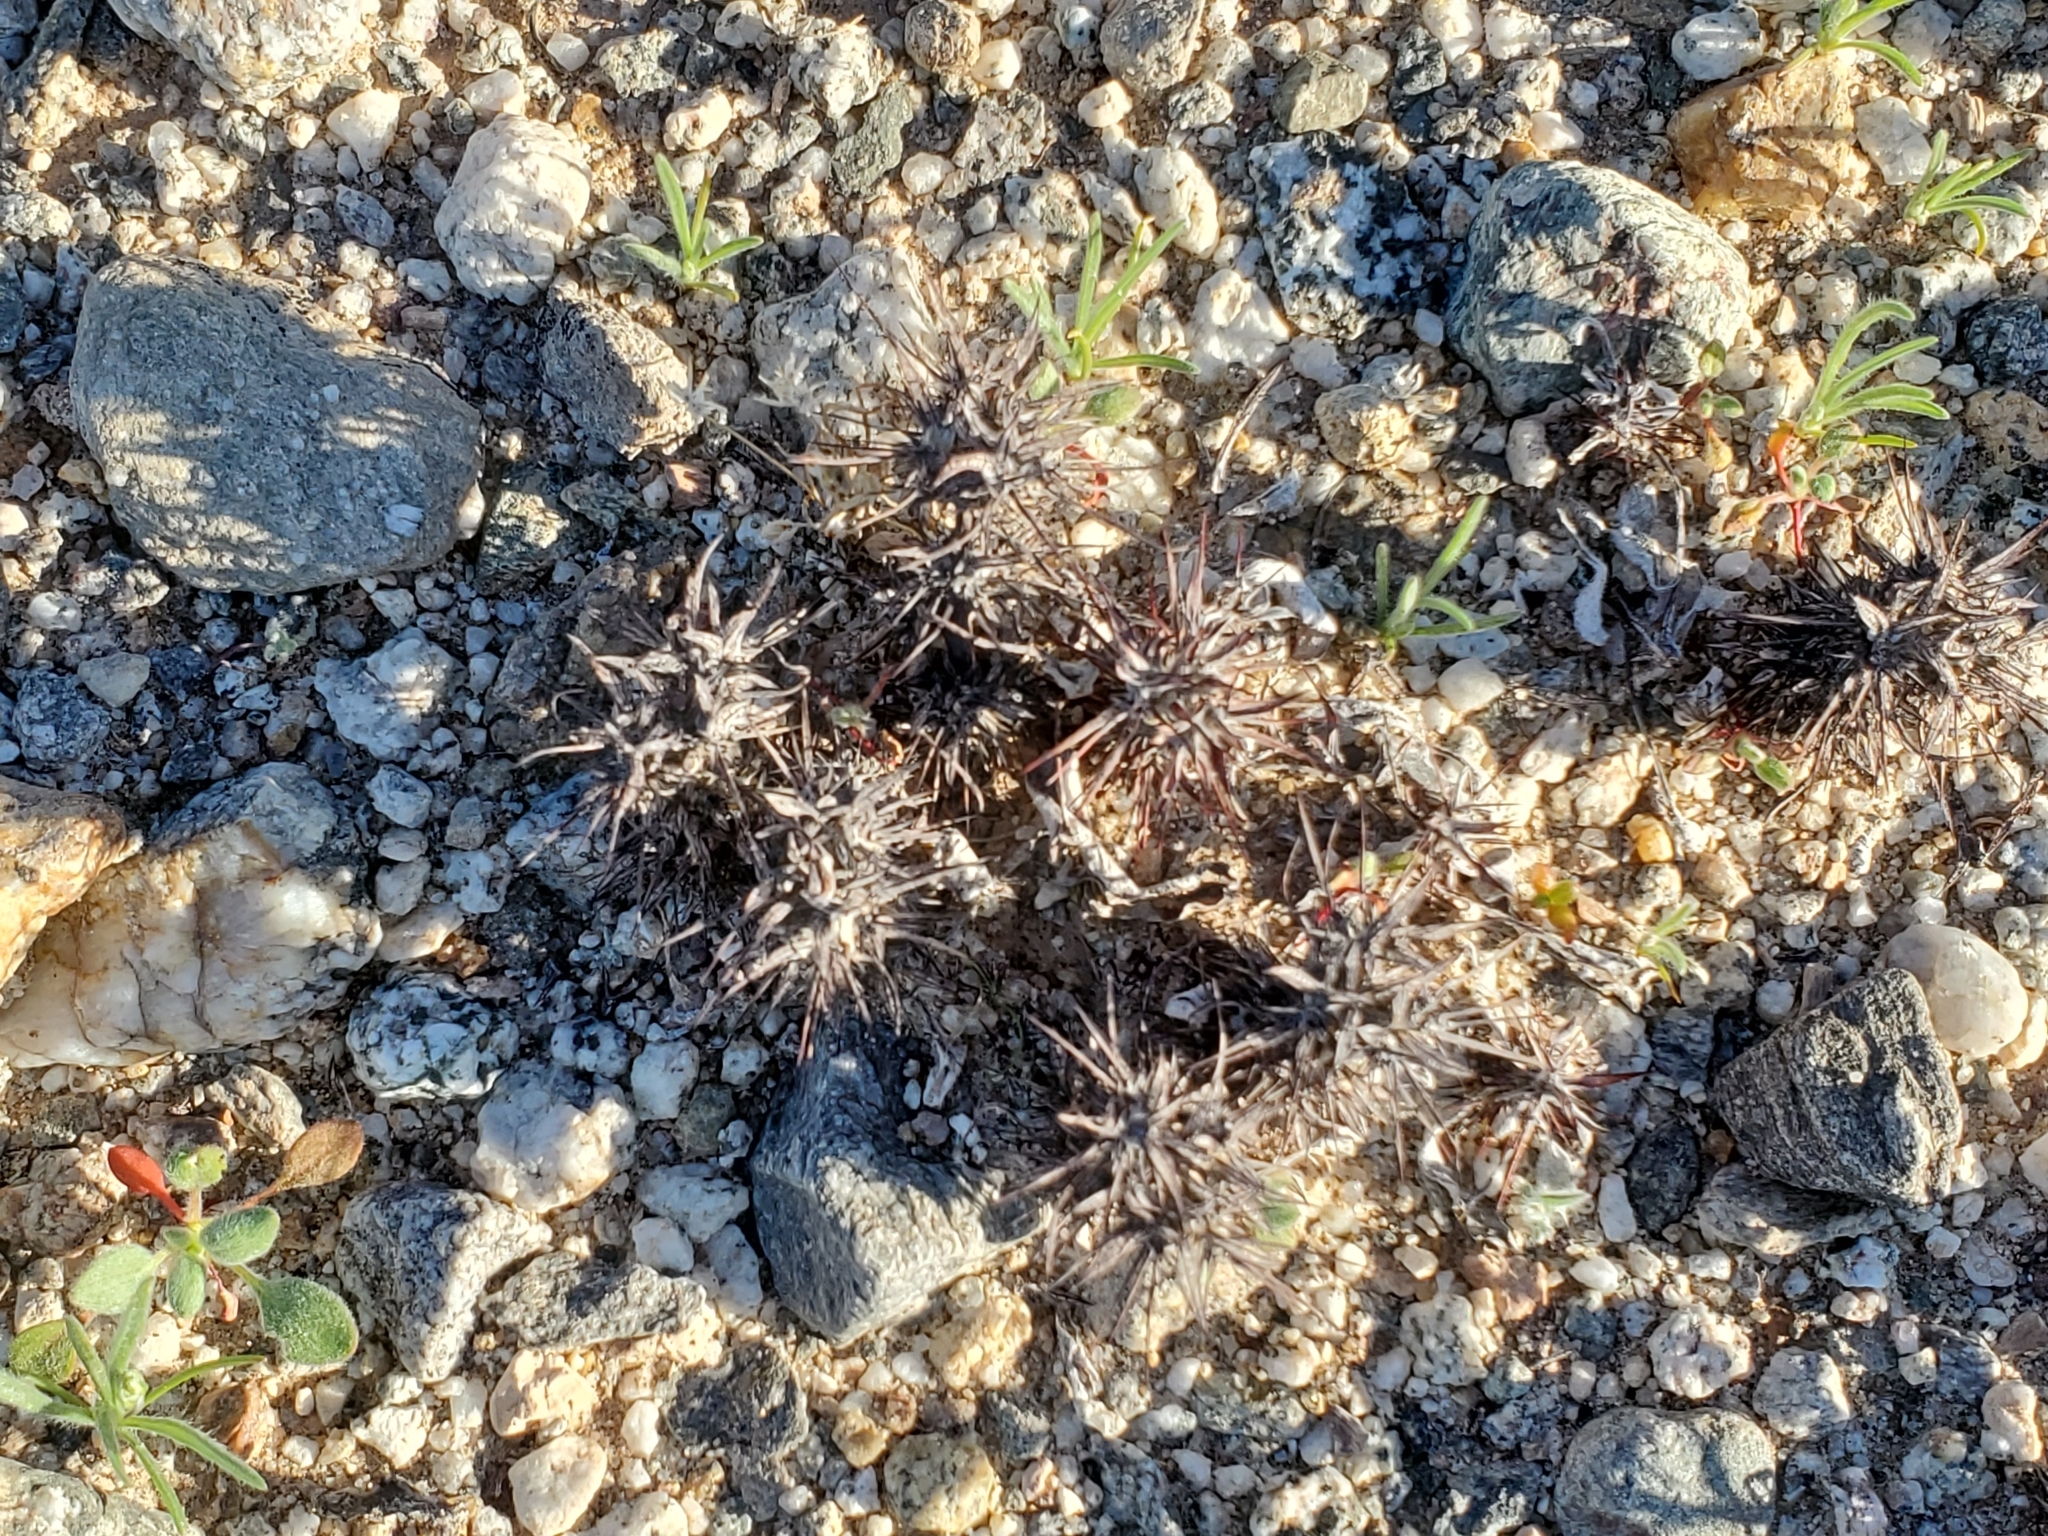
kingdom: Plantae
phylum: Tracheophyta
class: Magnoliopsida
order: Caryophyllales
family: Polygonaceae
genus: Chorizanthe
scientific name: Chorizanthe rigida
